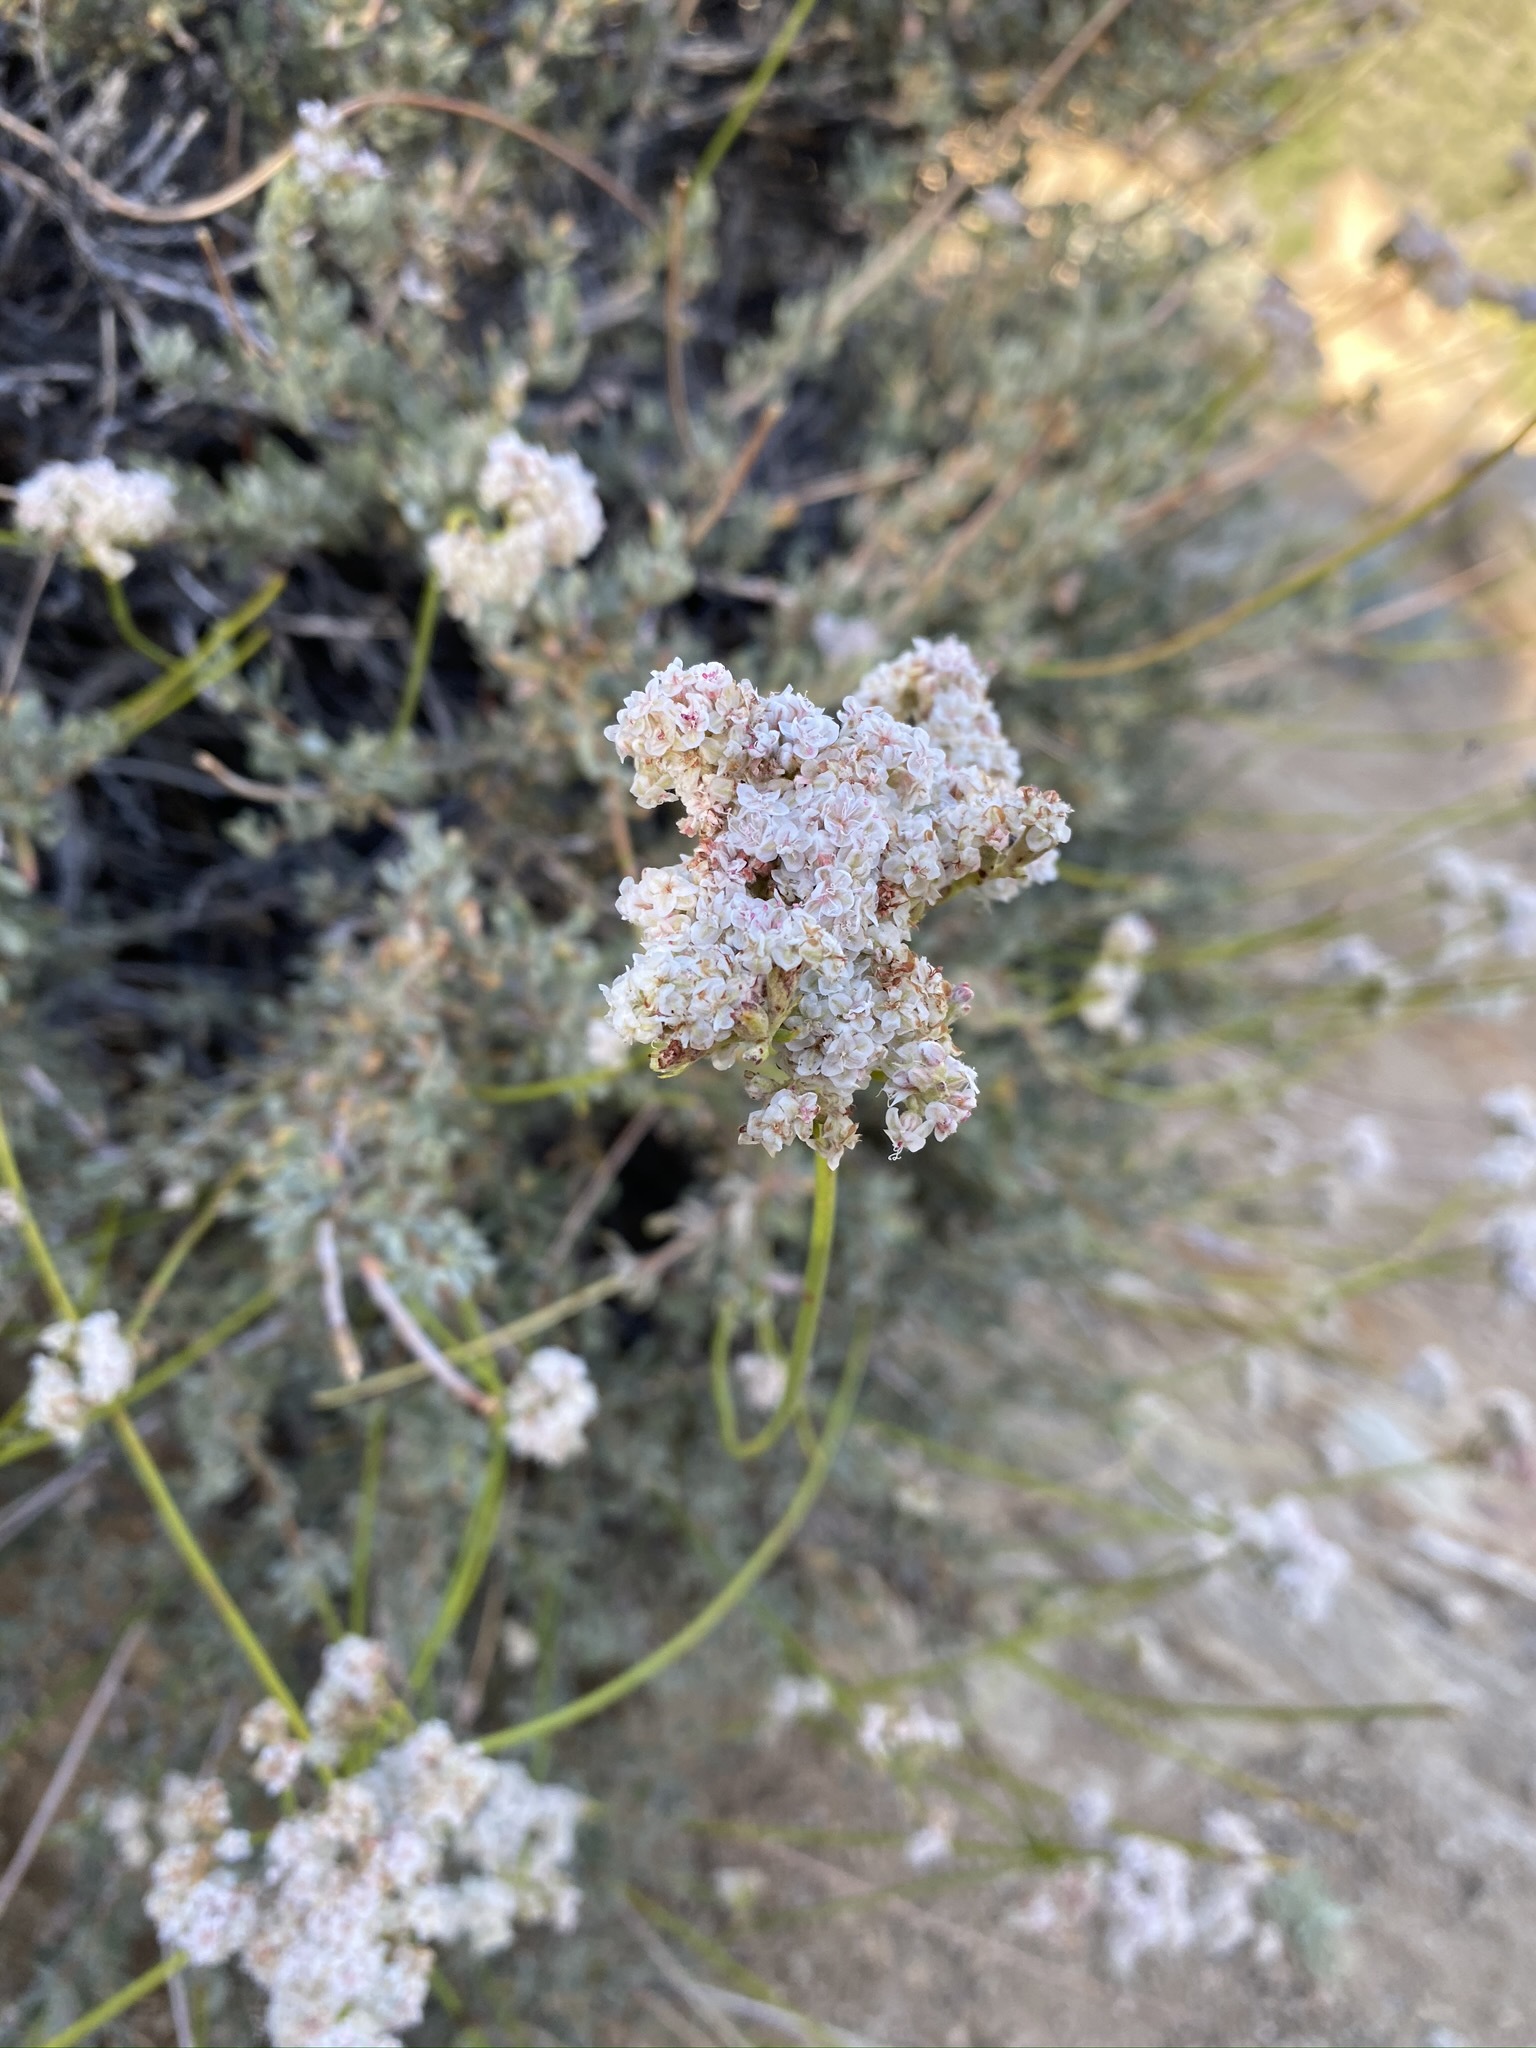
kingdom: Plantae
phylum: Tracheophyta
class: Magnoliopsida
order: Caryophyllales
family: Polygonaceae
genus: Eriogonum
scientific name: Eriogonum fasciculatum
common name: California wild buckwheat
